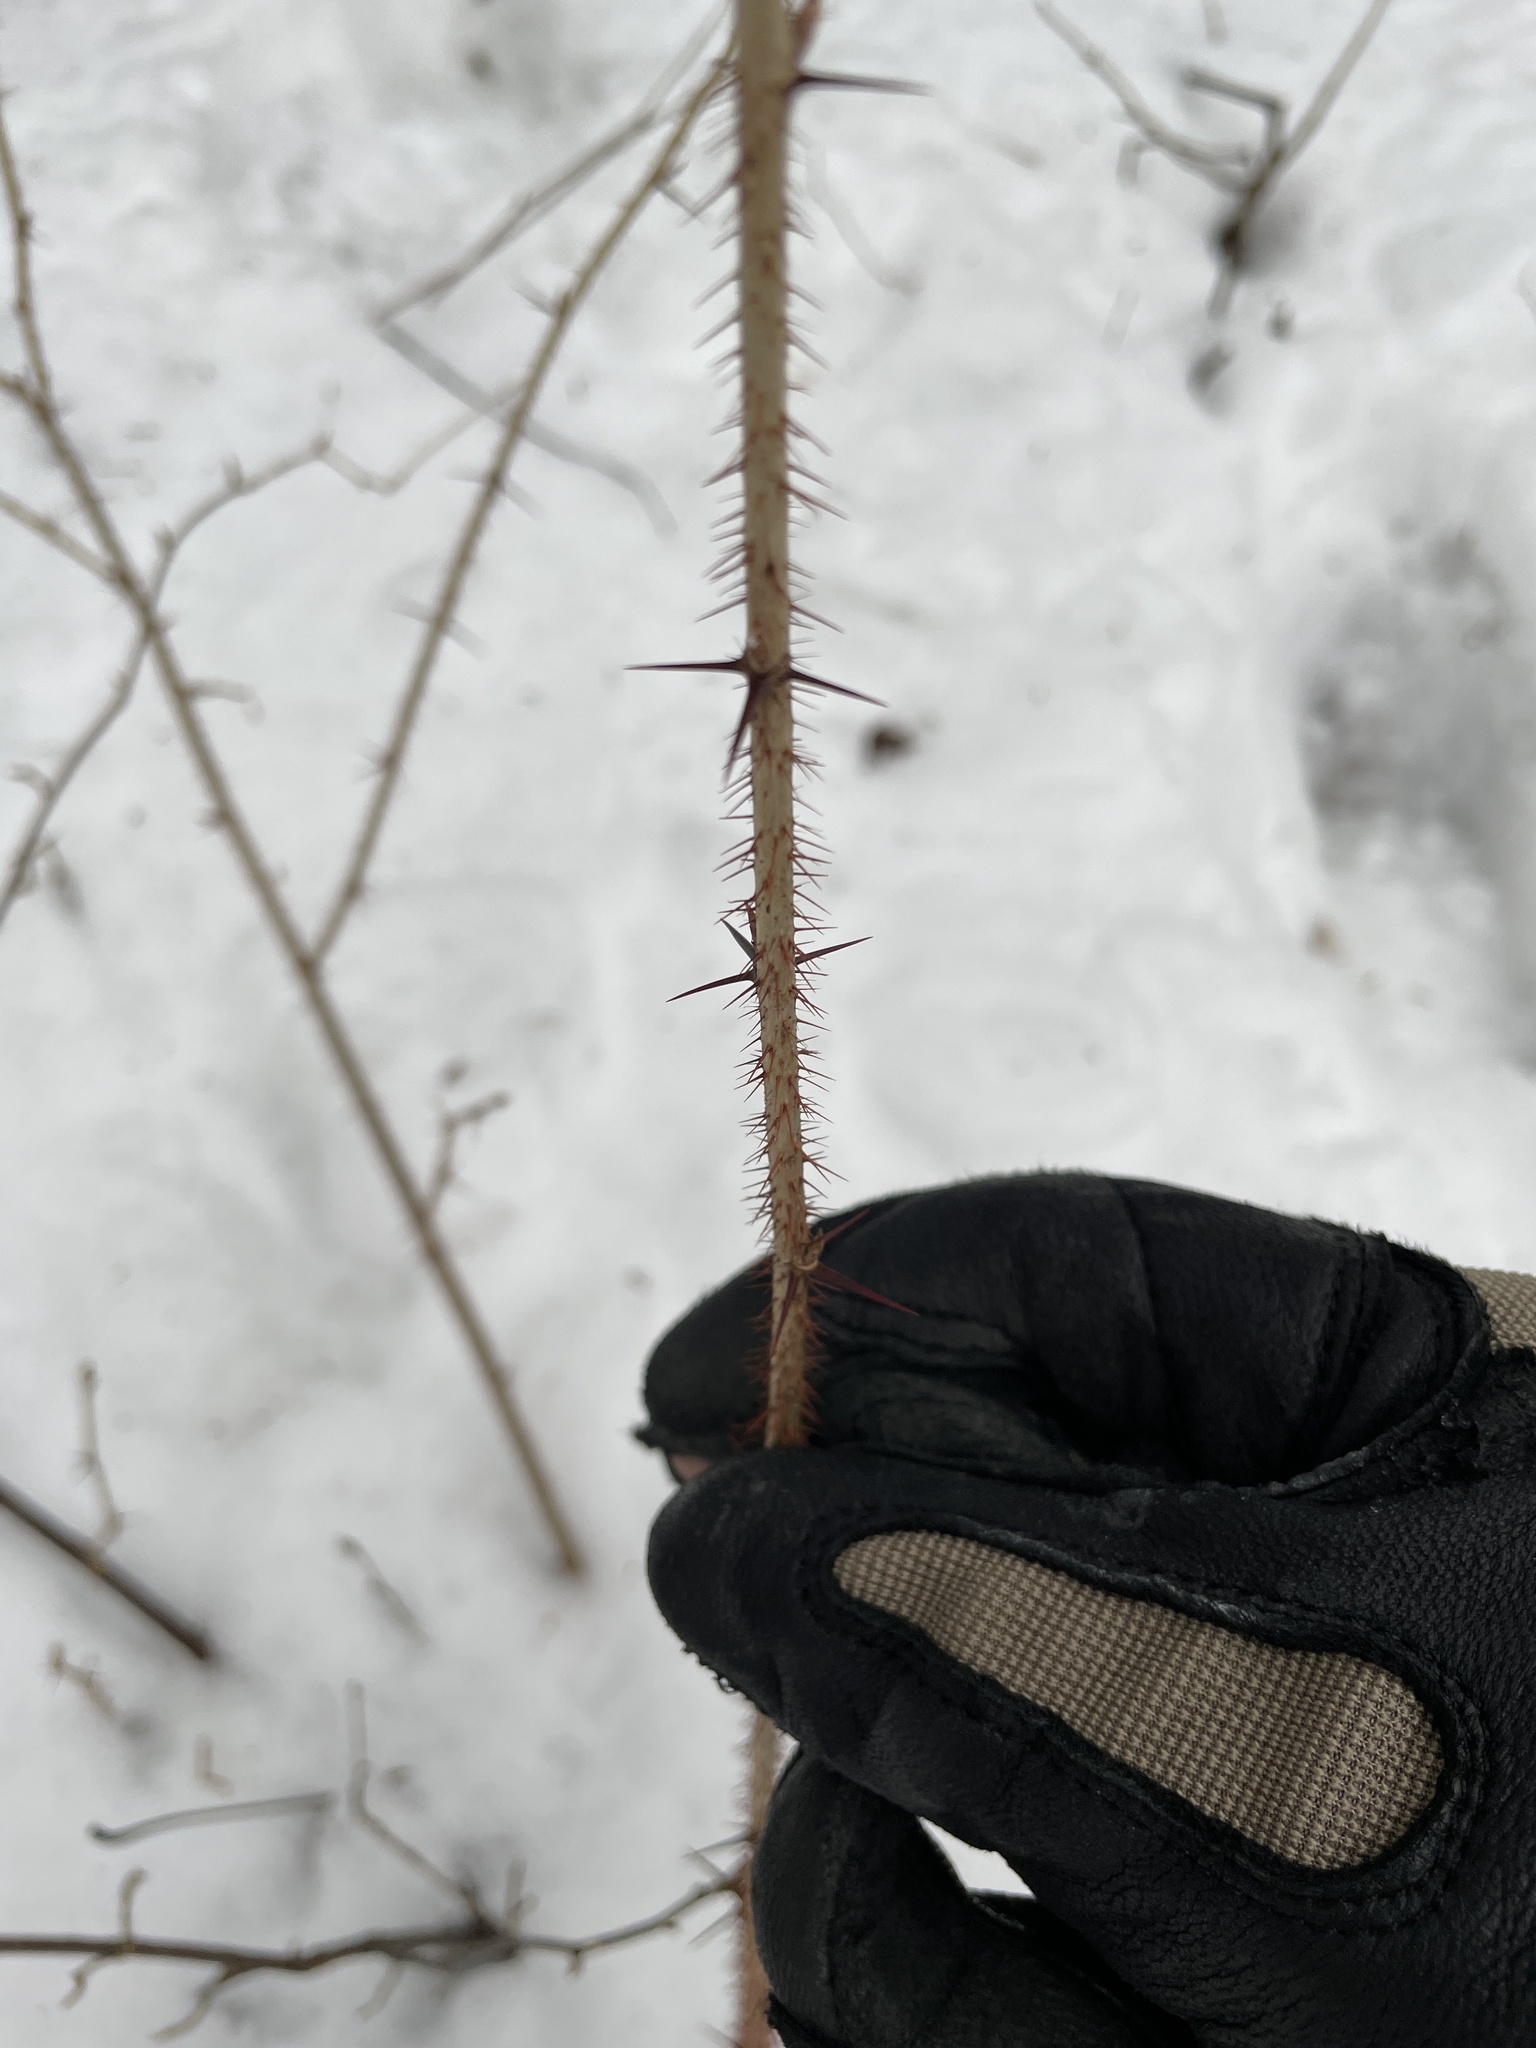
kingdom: Plantae
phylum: Tracheophyta
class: Magnoliopsida
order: Saxifragales
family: Grossulariaceae
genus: Ribes
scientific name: Ribes cynosbati
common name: American gooseberry
